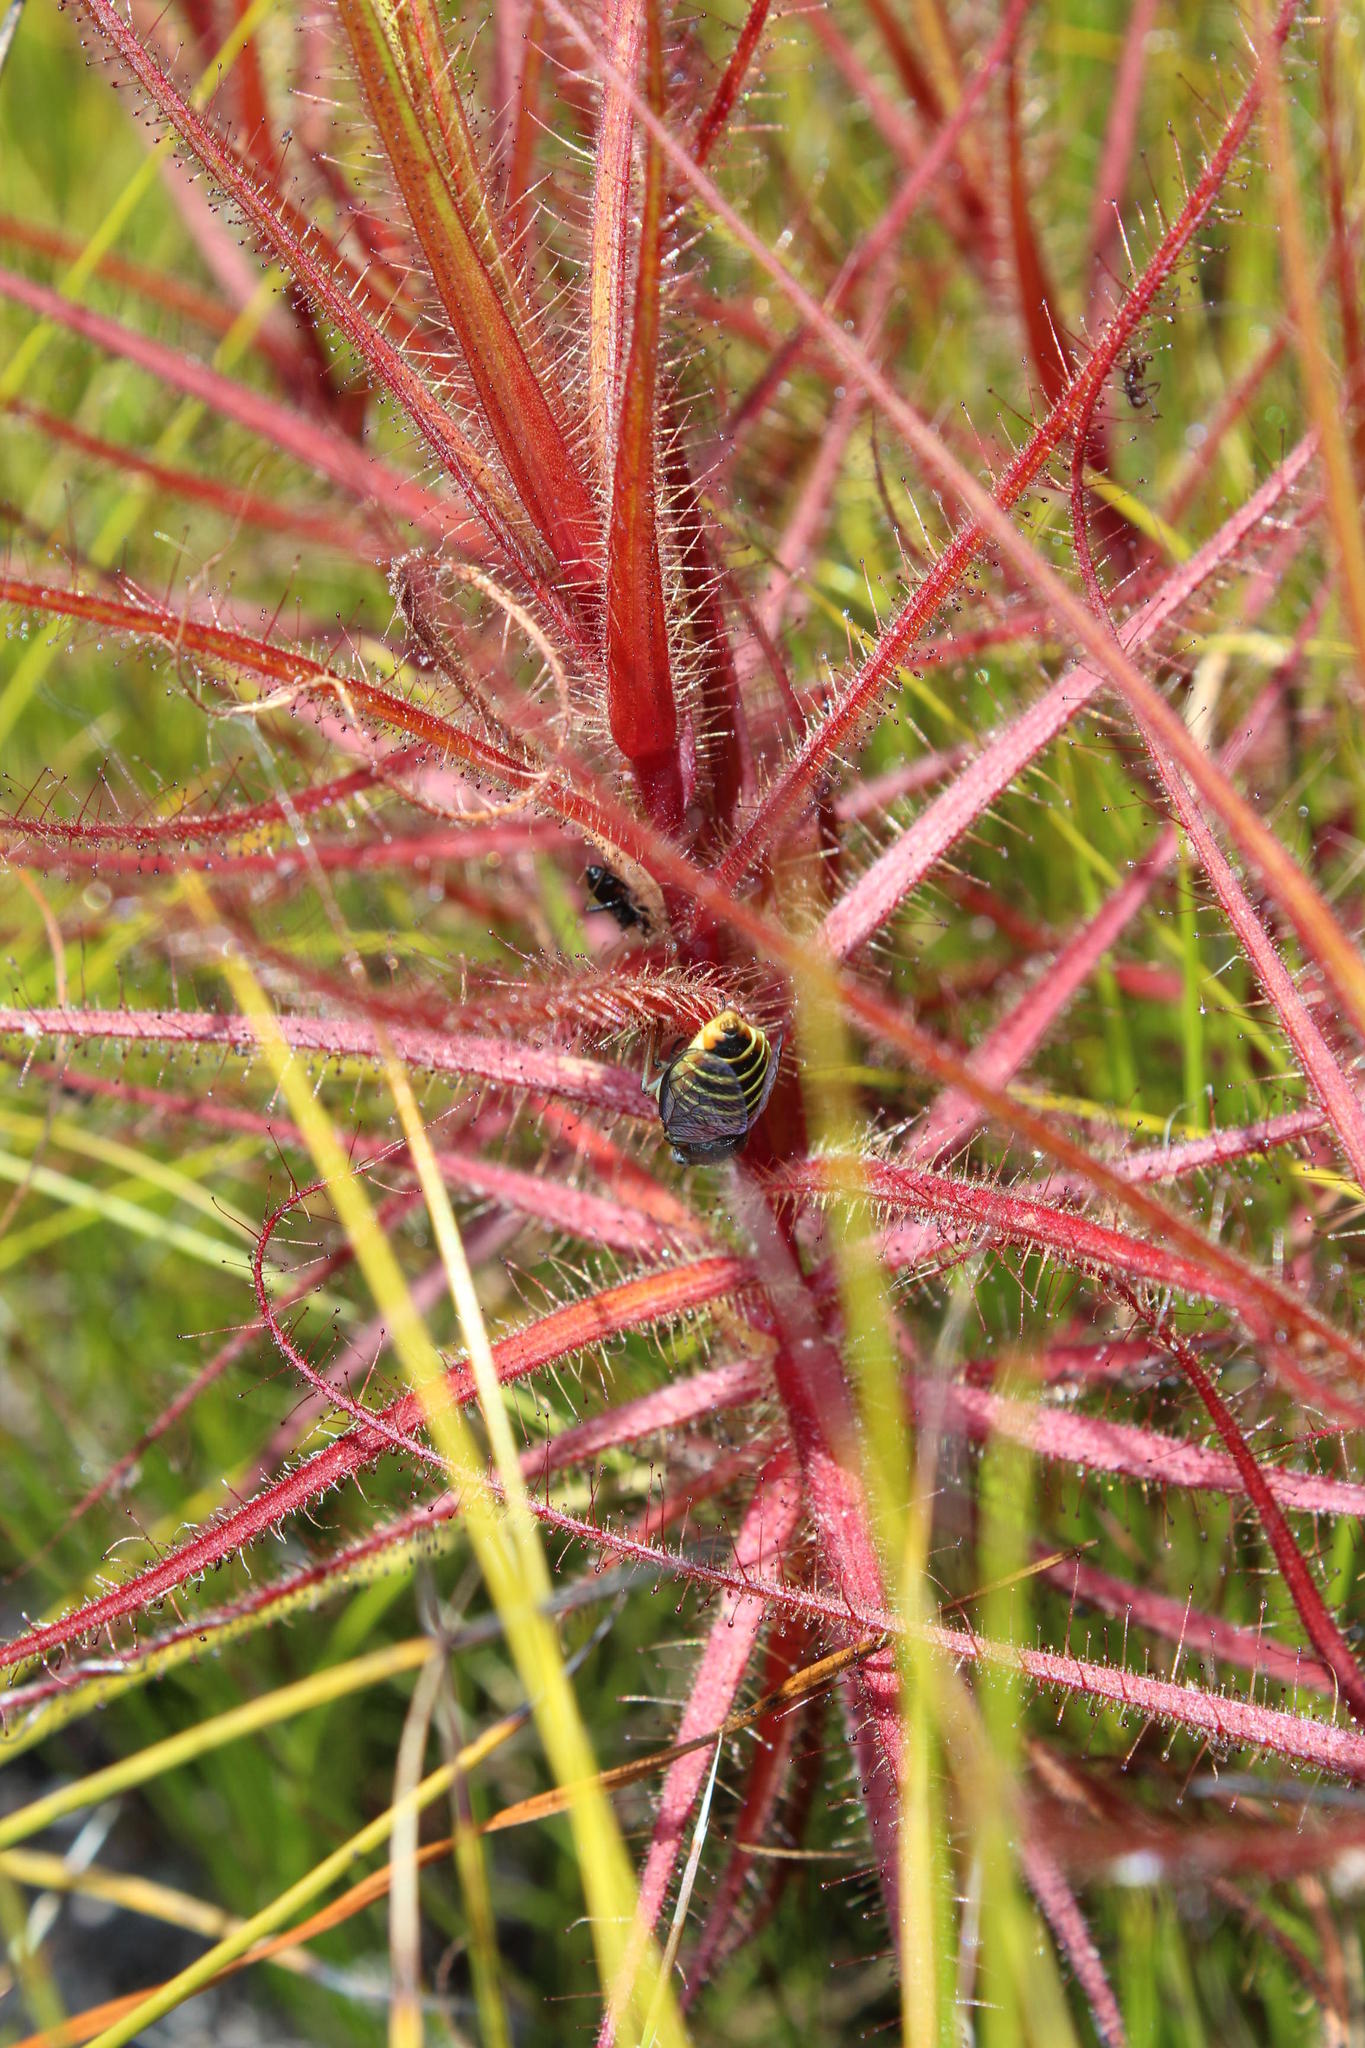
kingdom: Plantae
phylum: Tracheophyta
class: Magnoliopsida
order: Ericales
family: Roridulaceae
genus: Roridula
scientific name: Roridula gorgonias
